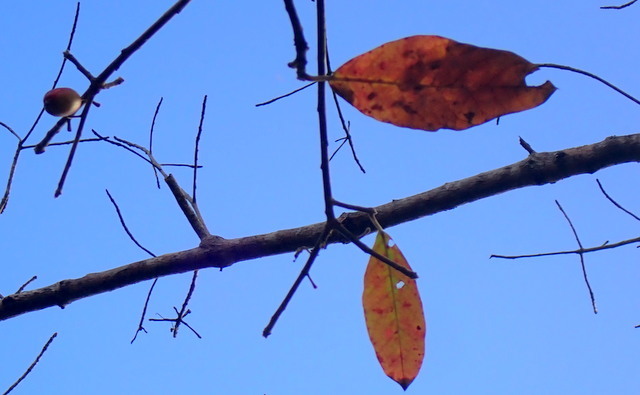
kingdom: Plantae
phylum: Tracheophyta
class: Magnoliopsida
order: Cornales
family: Nyssaceae
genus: Nyssa
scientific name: Nyssa ogeche
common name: Ogeechee tupelo
